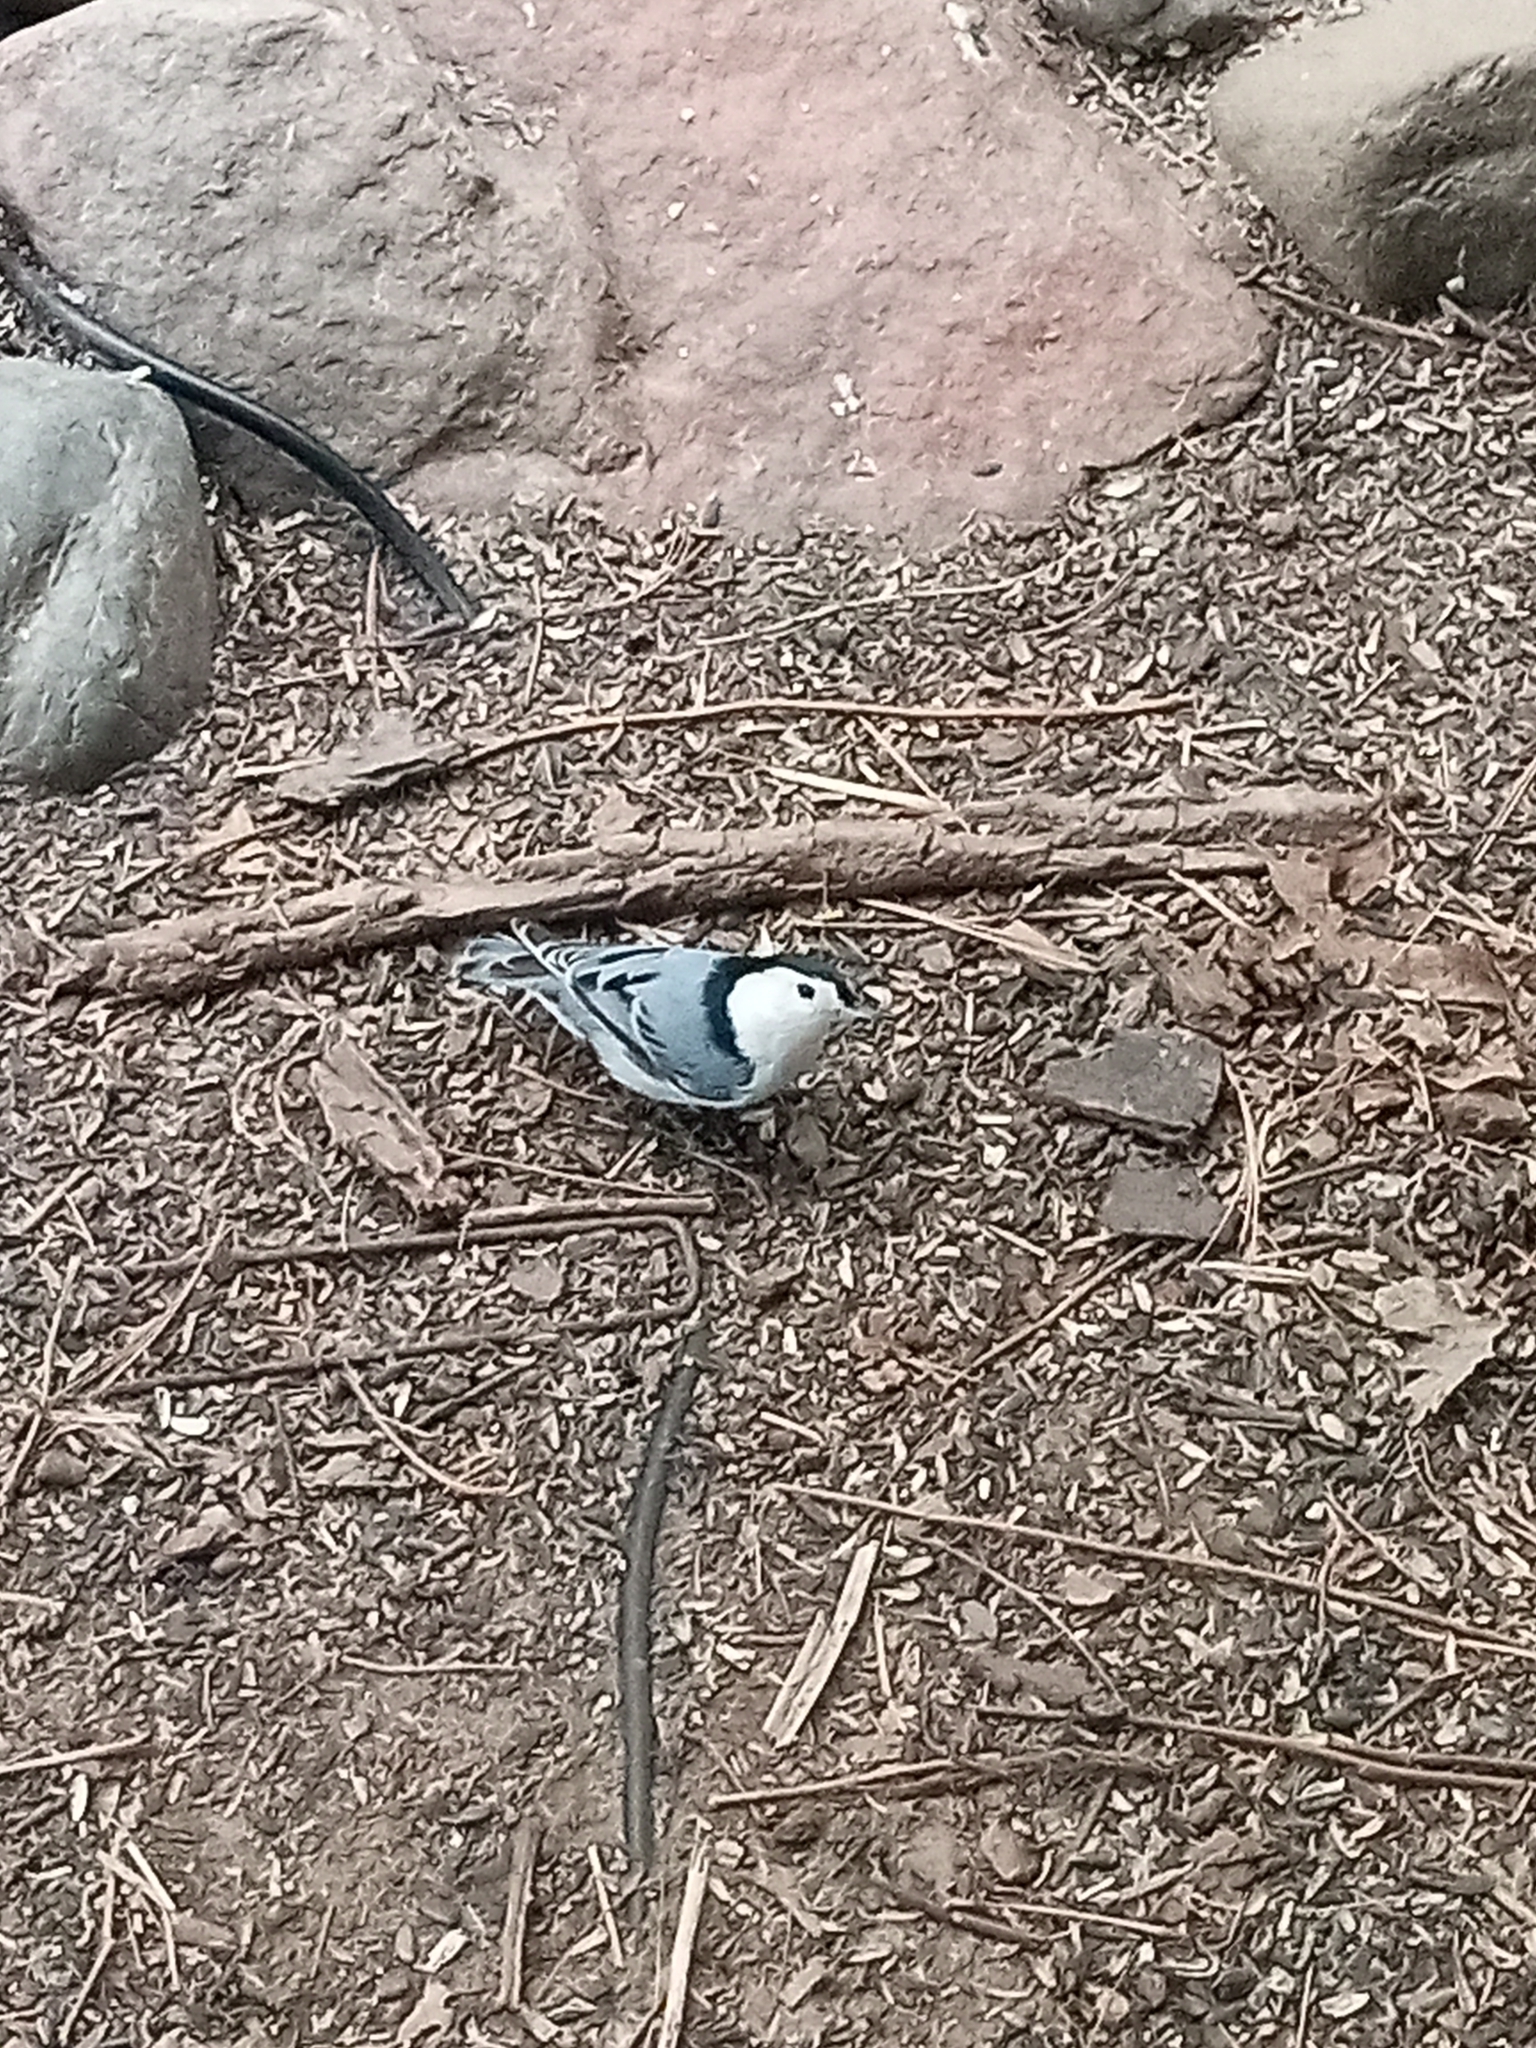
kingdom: Animalia
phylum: Chordata
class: Aves
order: Passeriformes
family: Sittidae
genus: Sitta
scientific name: Sitta carolinensis
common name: White-breasted nuthatch
